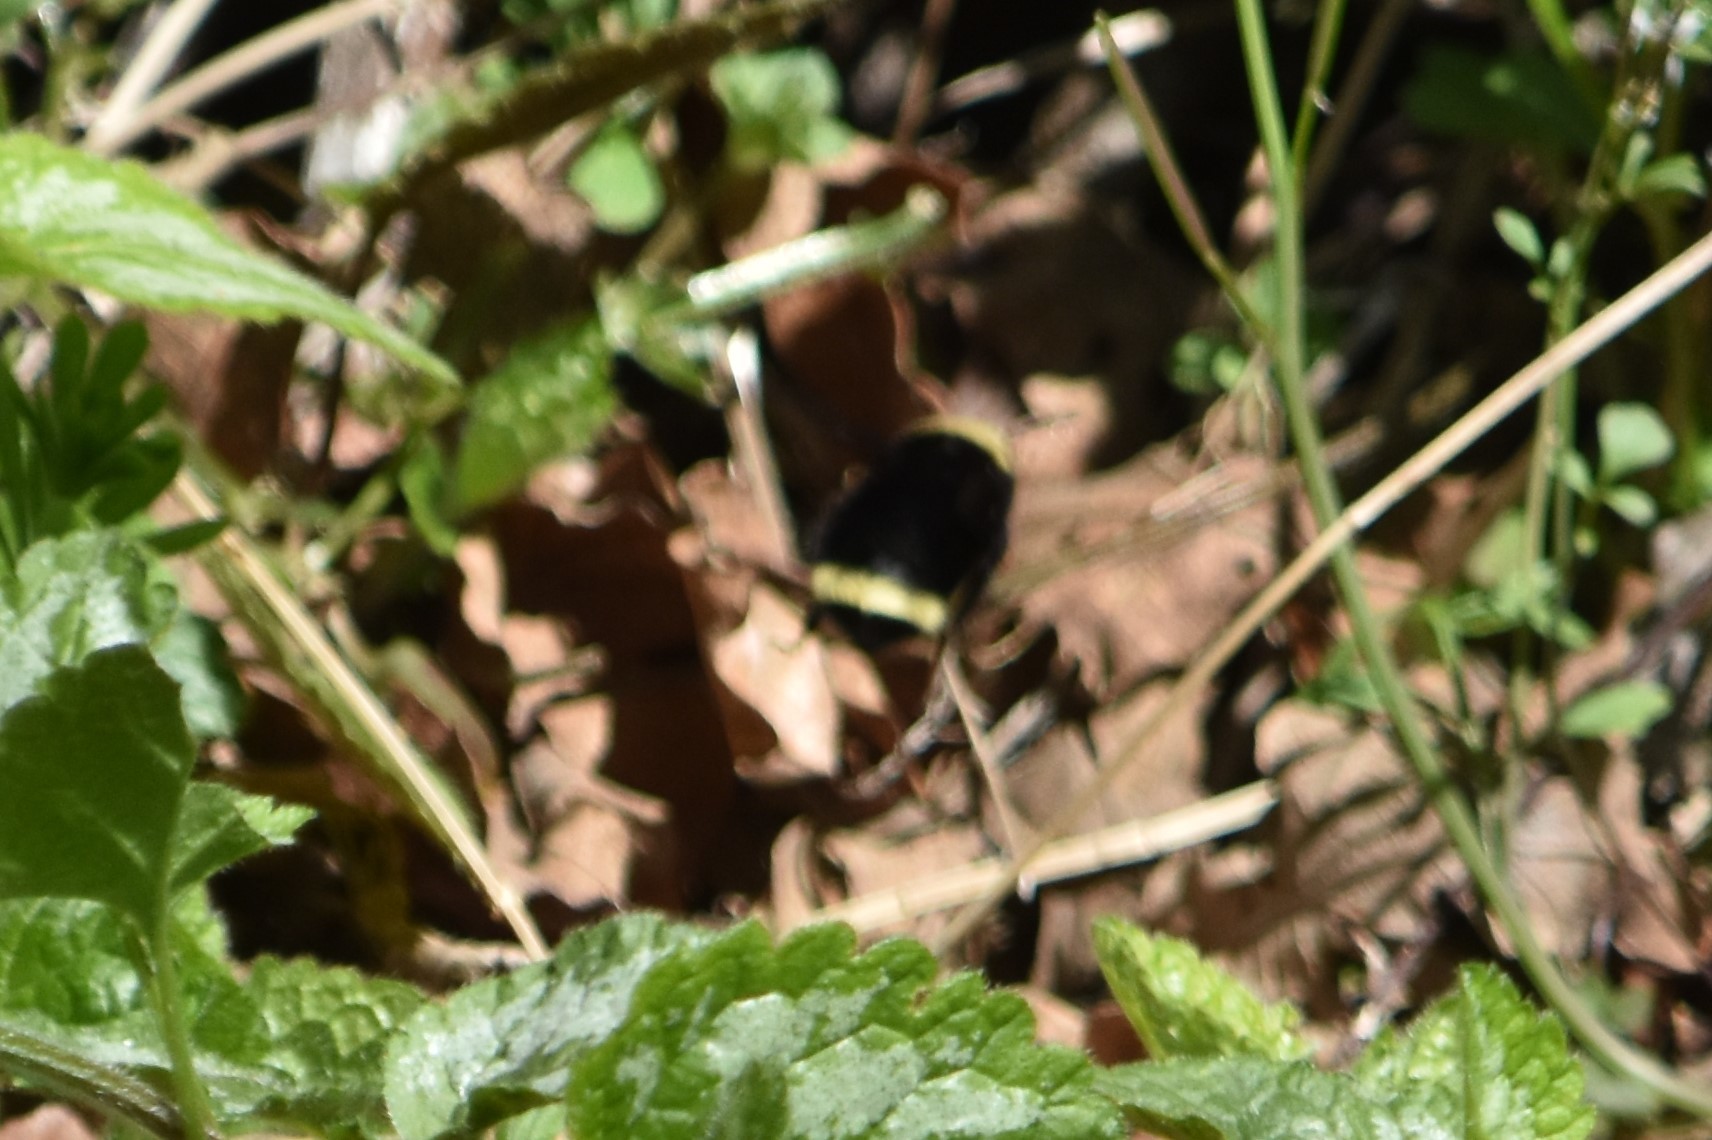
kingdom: Animalia
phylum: Arthropoda
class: Insecta
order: Hymenoptera
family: Apidae
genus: Bombus
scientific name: Bombus vosnesenskii
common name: Vosnesensky bumble bee
